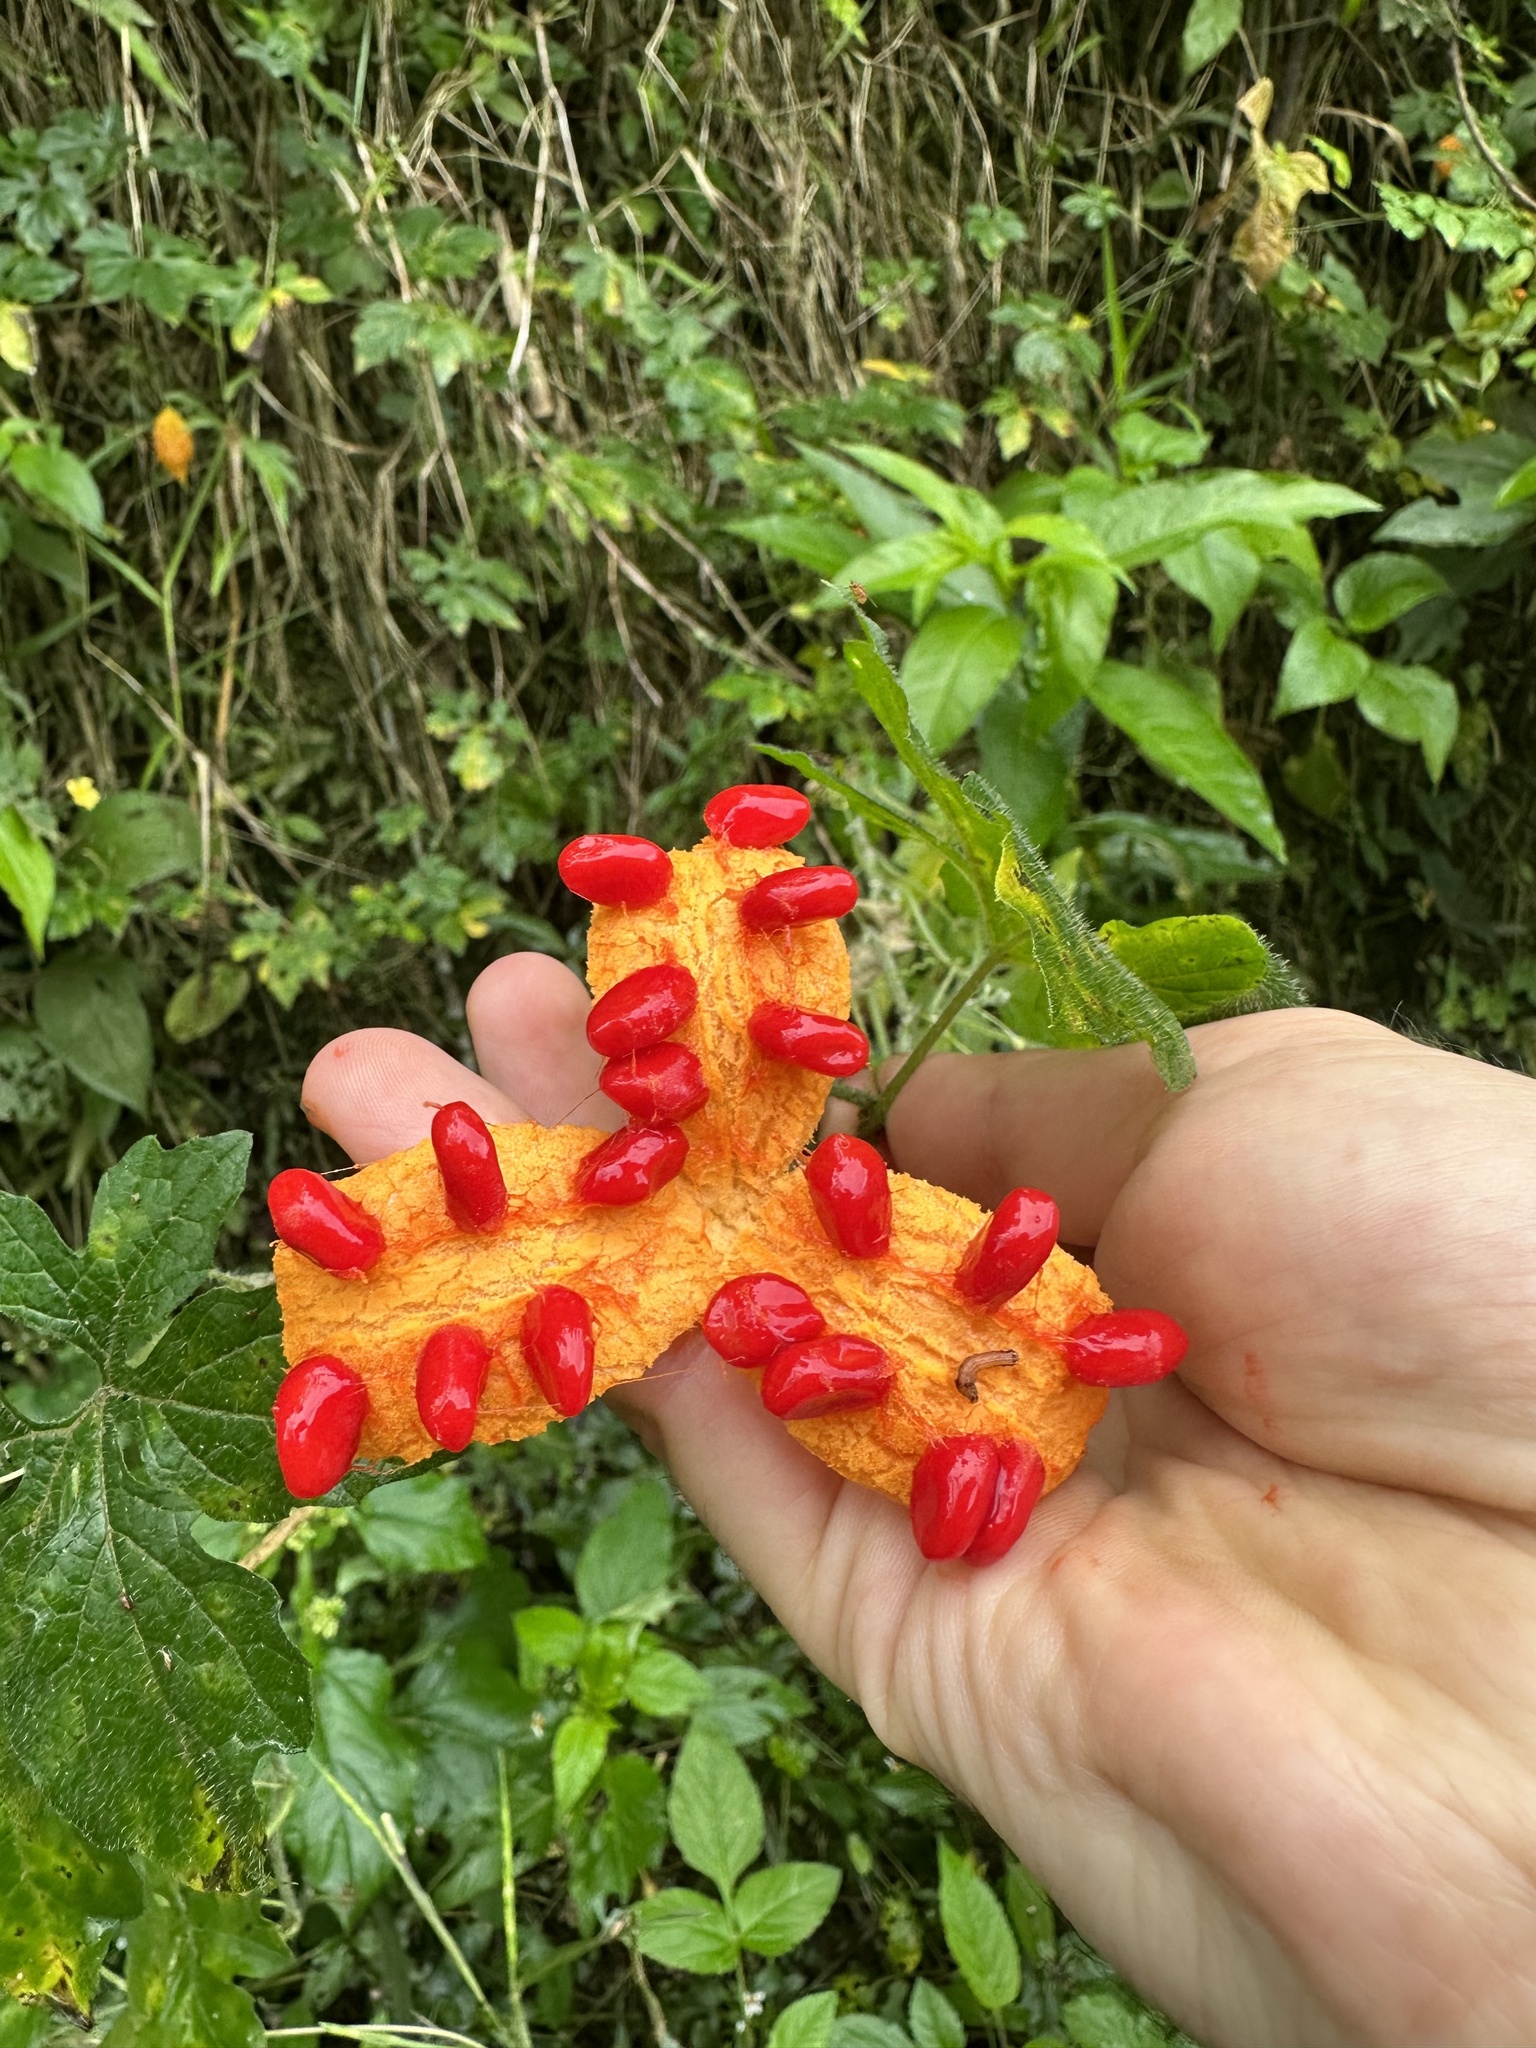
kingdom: Plantae
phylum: Tracheophyta
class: Magnoliopsida
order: Cucurbitales
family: Cucurbitaceae
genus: Momordica
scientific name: Momordica charantia
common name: Balsampear
